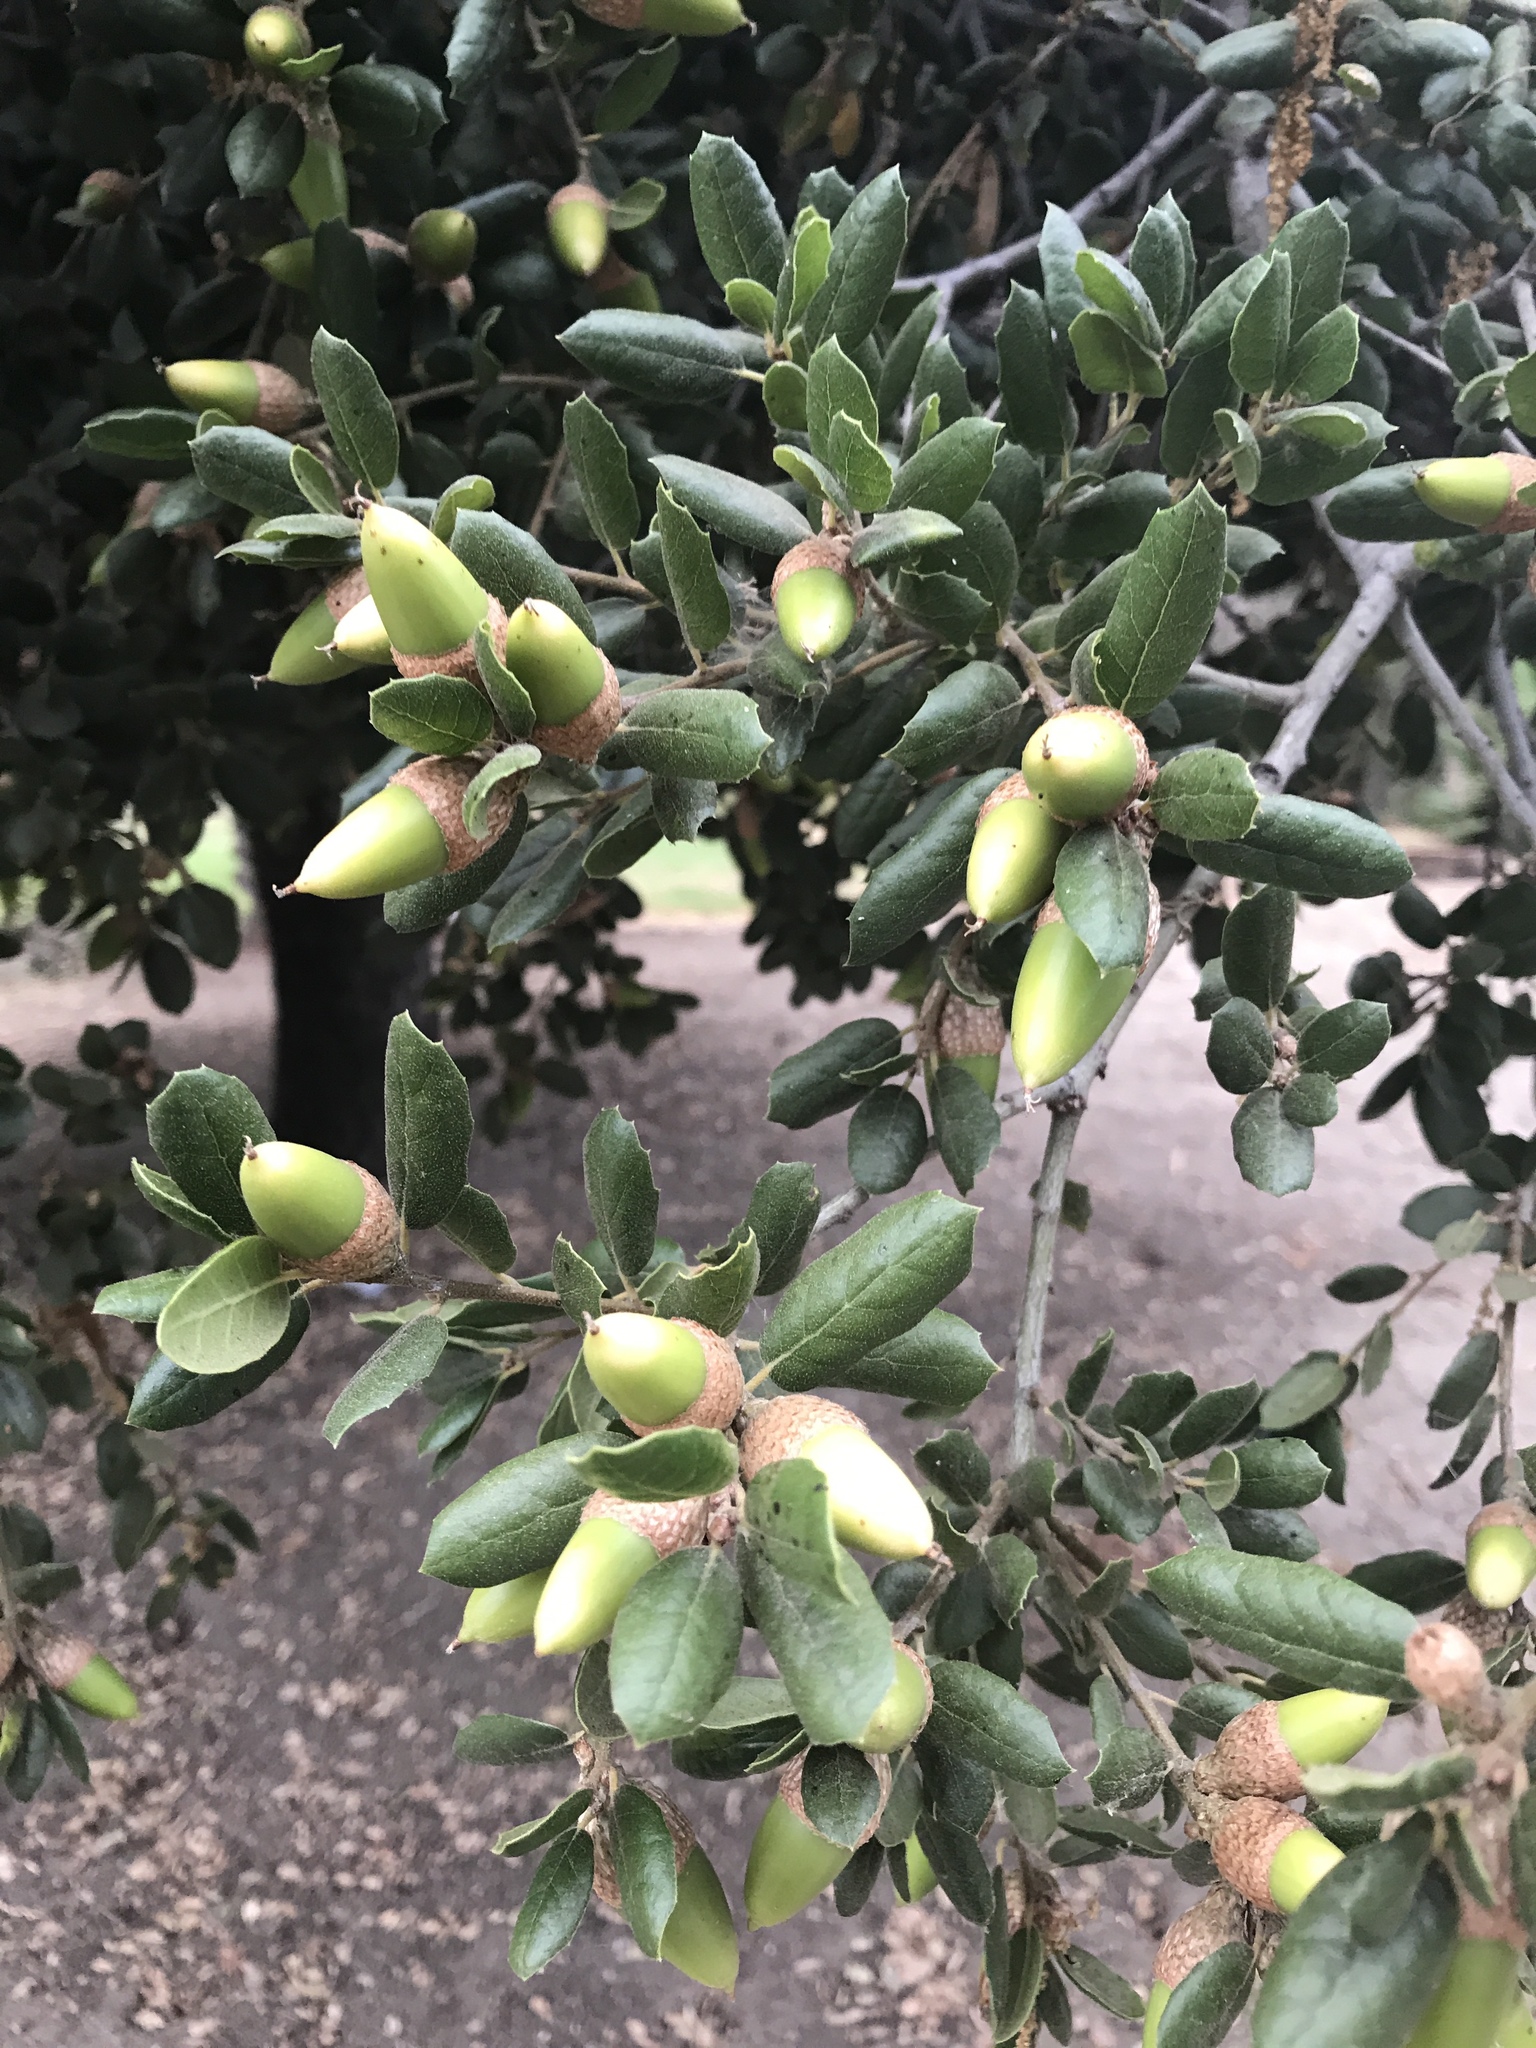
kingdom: Plantae
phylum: Tracheophyta
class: Magnoliopsida
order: Fagales
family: Fagaceae
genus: Quercus
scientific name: Quercus agrifolia
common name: California live oak
